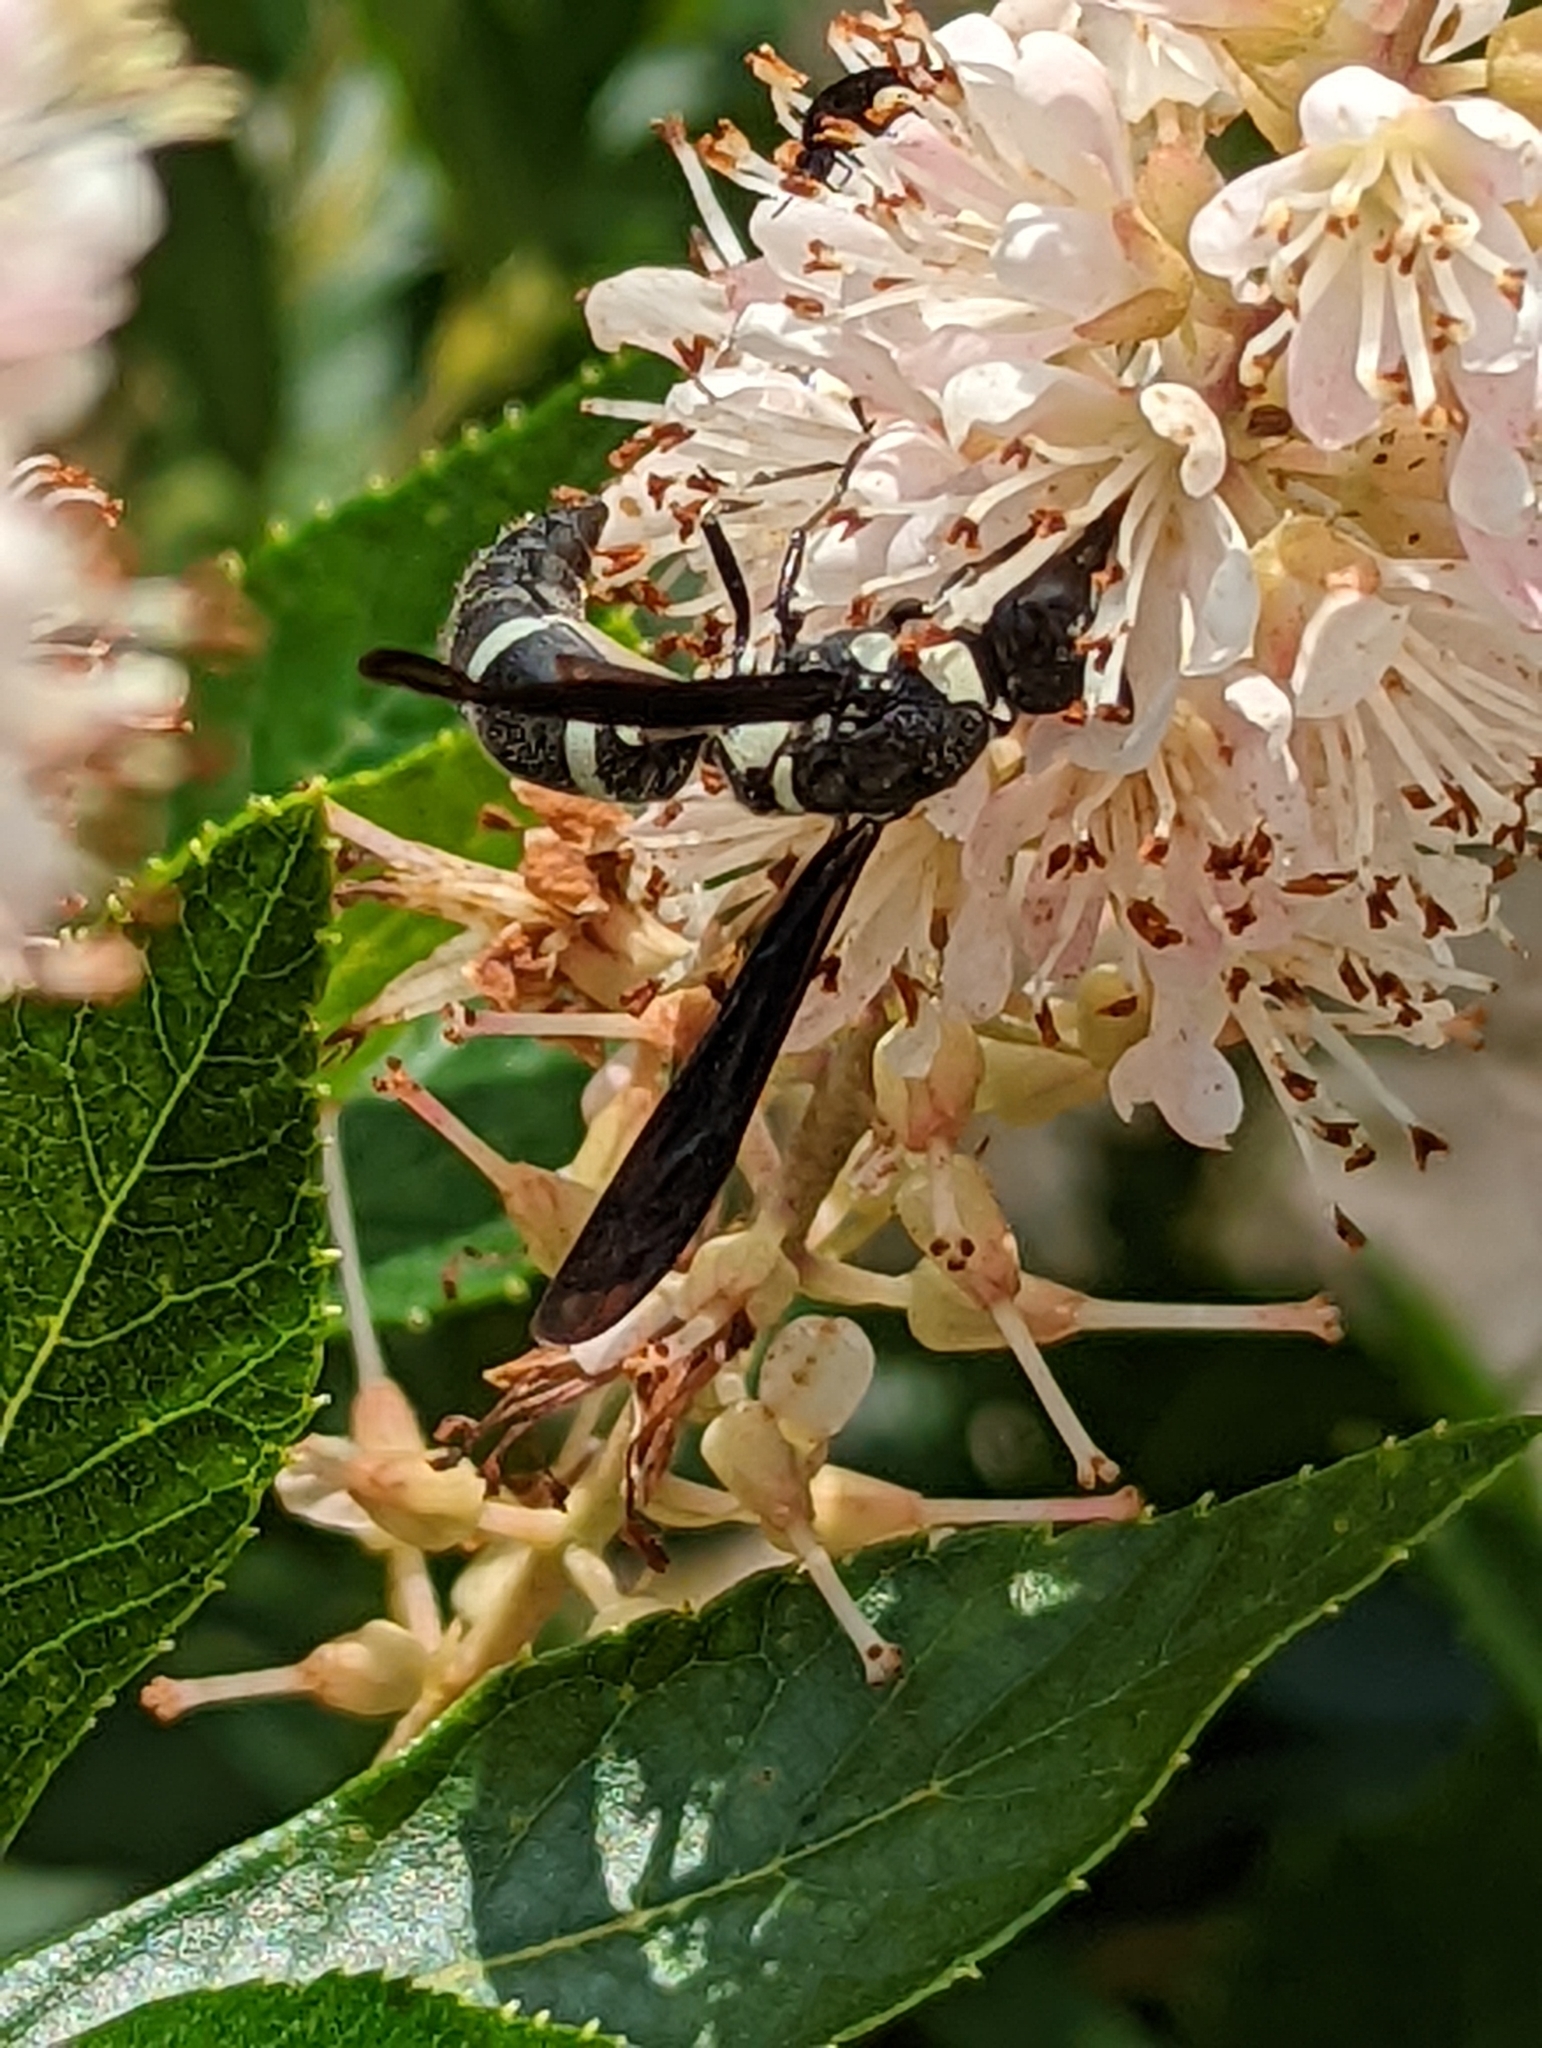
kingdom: Animalia
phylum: Arthropoda
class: Insecta
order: Hymenoptera
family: Eumenidae
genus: Pseudodynerus
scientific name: Pseudodynerus quadrisectus
